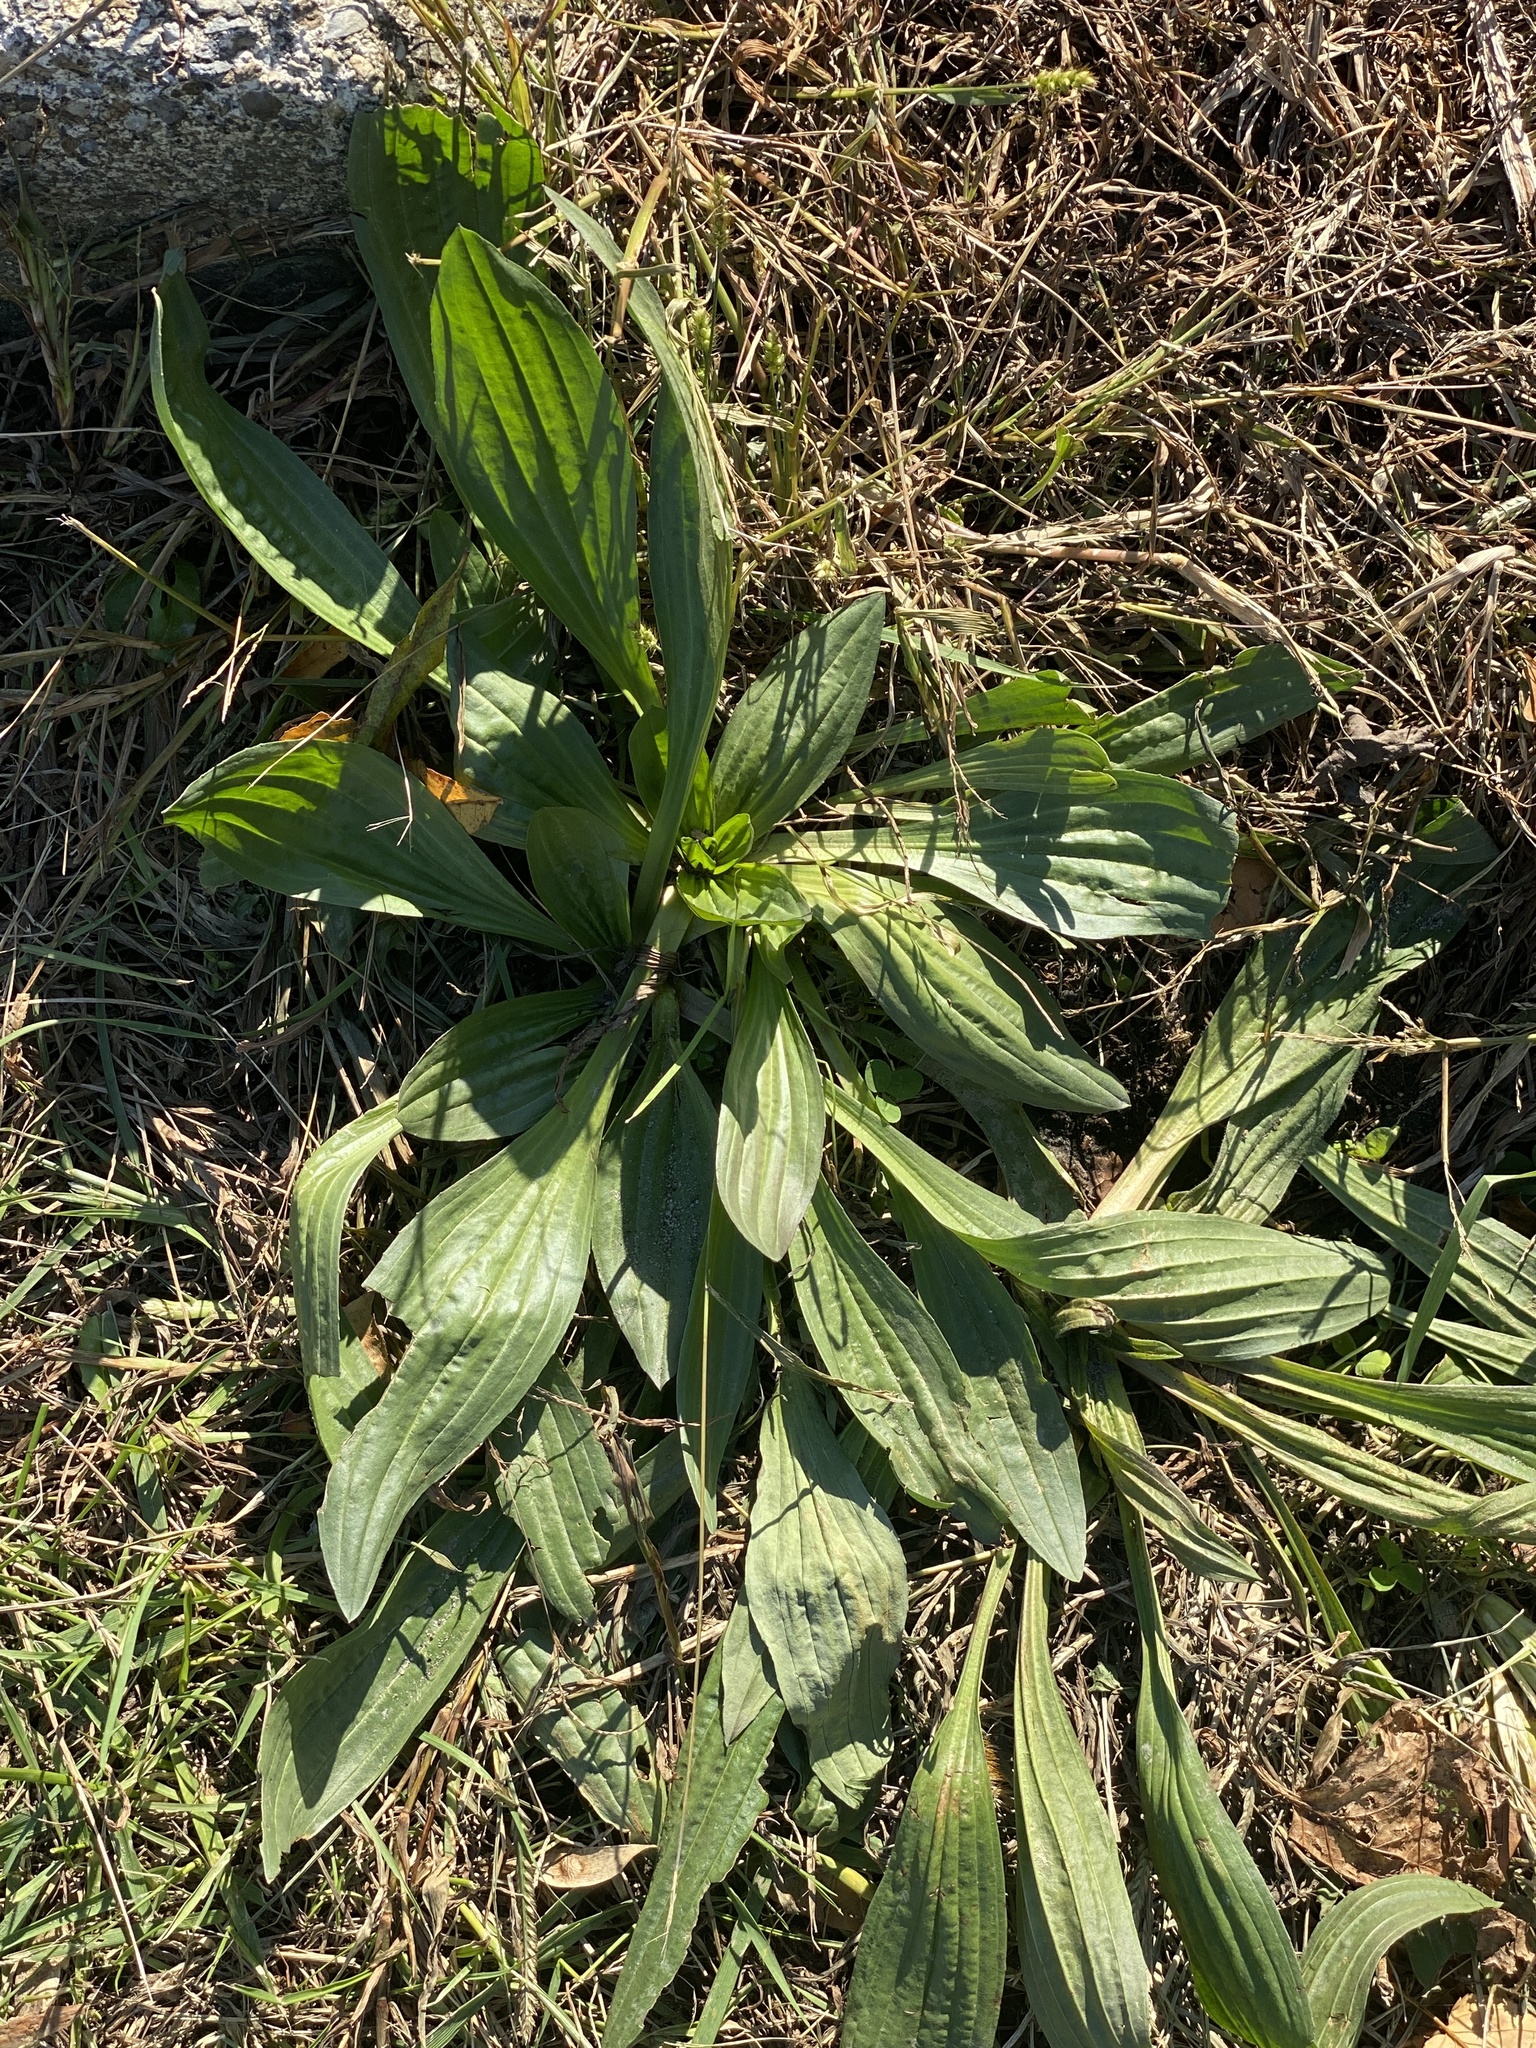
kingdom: Plantae
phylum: Tracheophyta
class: Magnoliopsida
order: Lamiales
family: Plantaginaceae
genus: Plantago
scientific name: Plantago lanceolata
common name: Ribwort plantain
